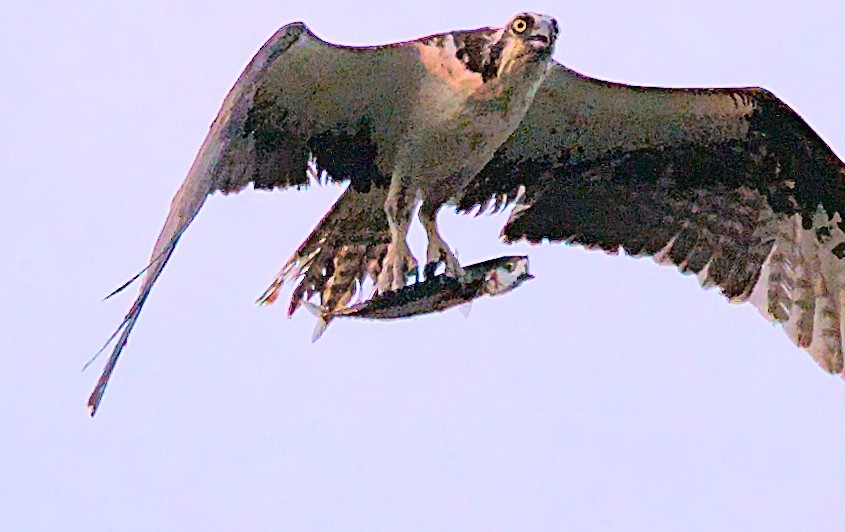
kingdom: Animalia
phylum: Chordata
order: Perciformes
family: Scombridae
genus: Scomber
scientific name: Scomber scombrus
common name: Mackerel
